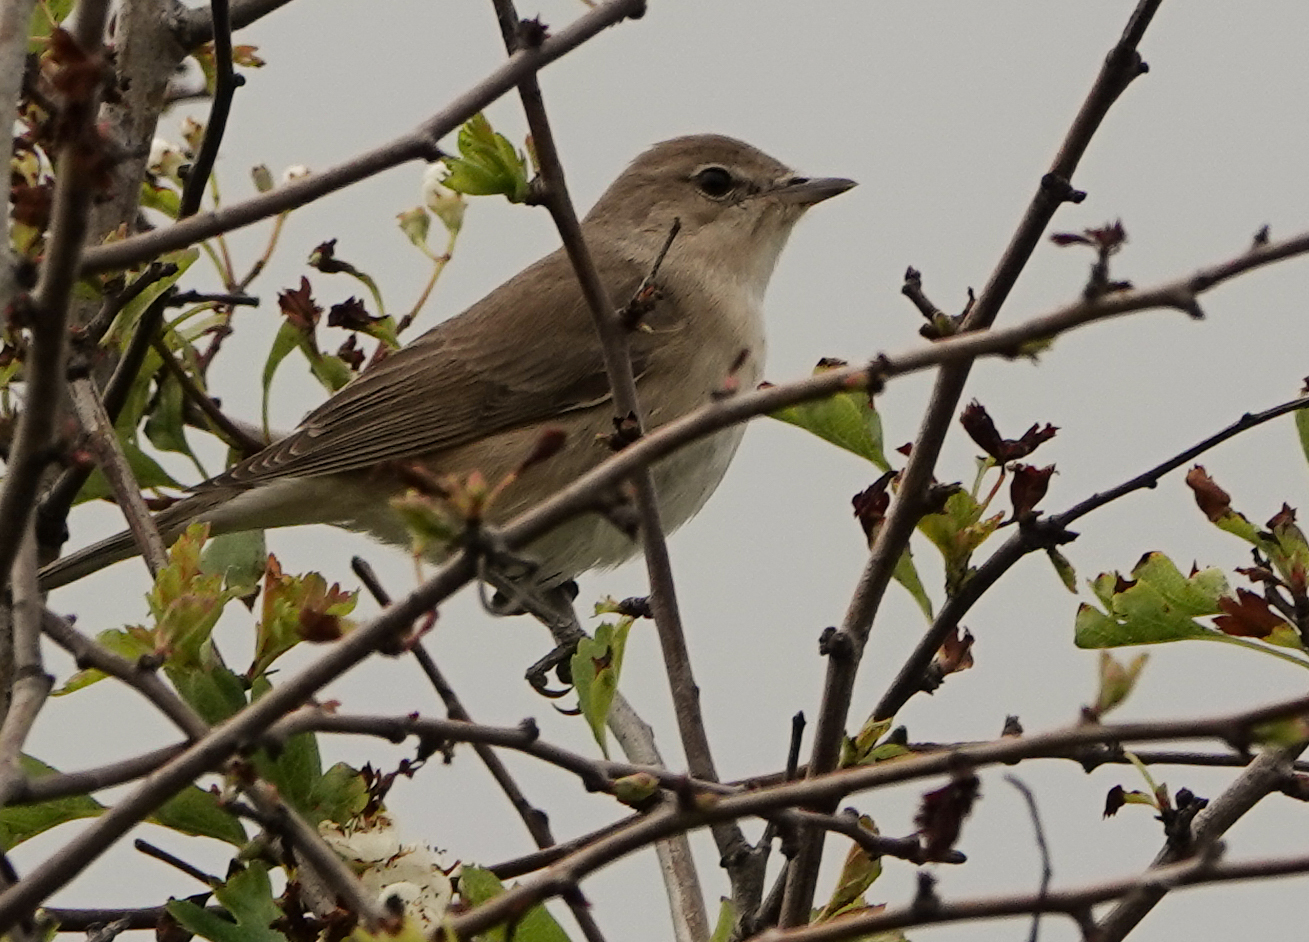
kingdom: Animalia
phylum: Chordata
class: Aves
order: Passeriformes
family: Sylviidae
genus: Sylvia
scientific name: Sylvia borin
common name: Garden warbler
